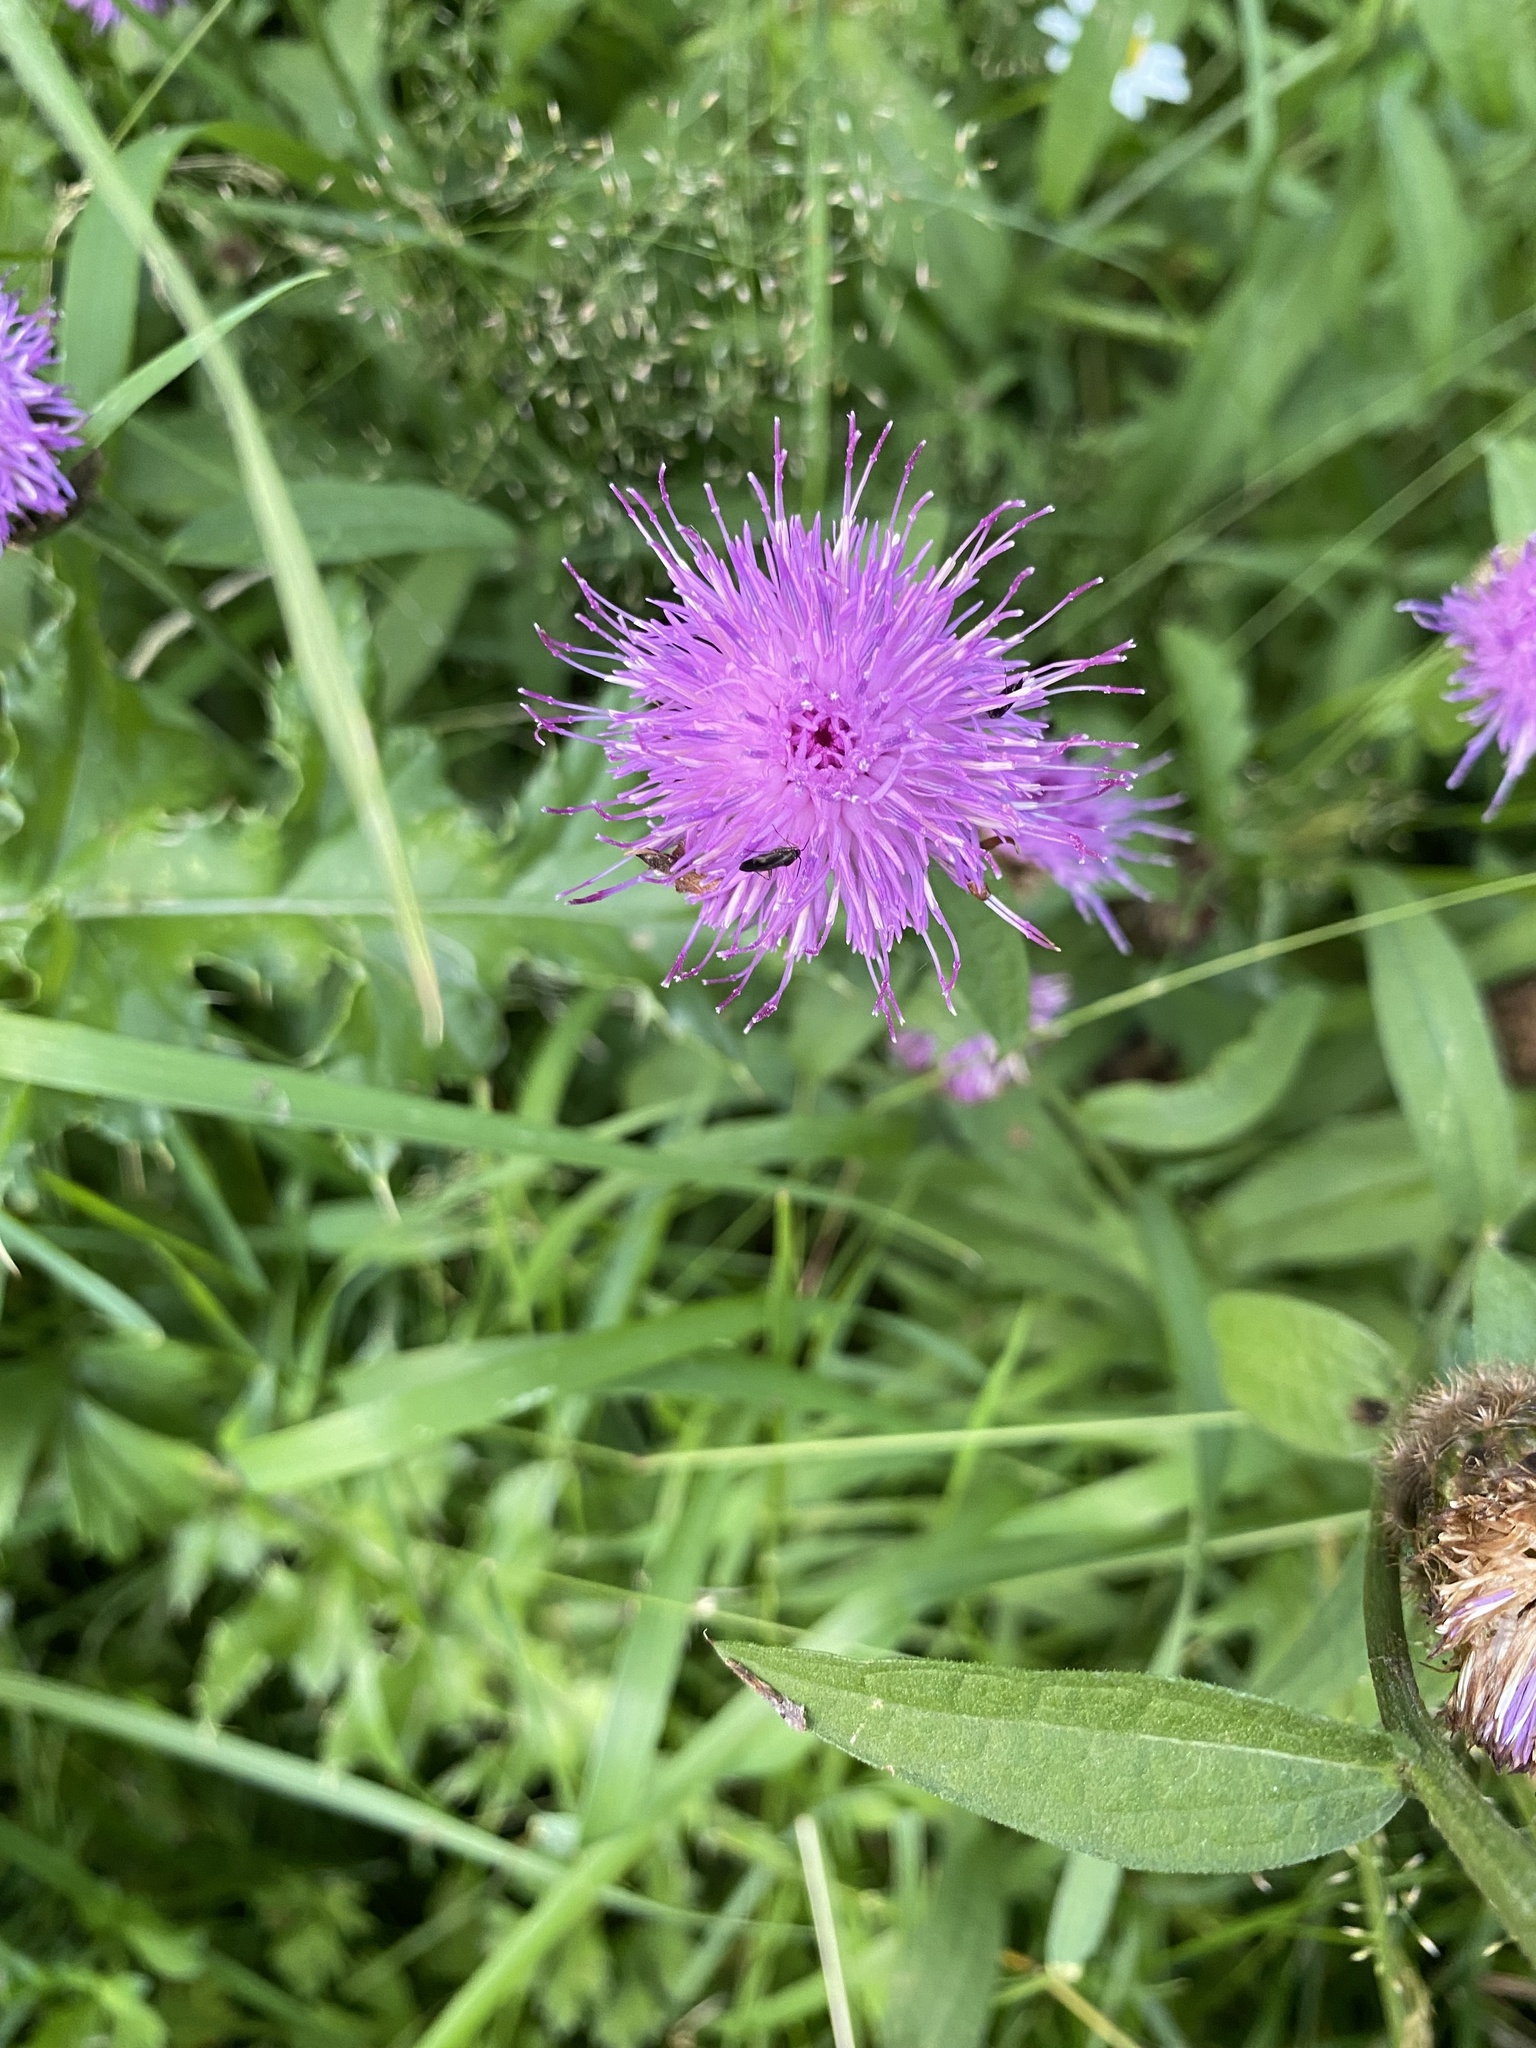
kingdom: Plantae
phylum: Tracheophyta
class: Magnoliopsida
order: Asterales
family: Asteraceae
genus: Centaurea
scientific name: Centaurea nigra
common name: Lesser knapweed
